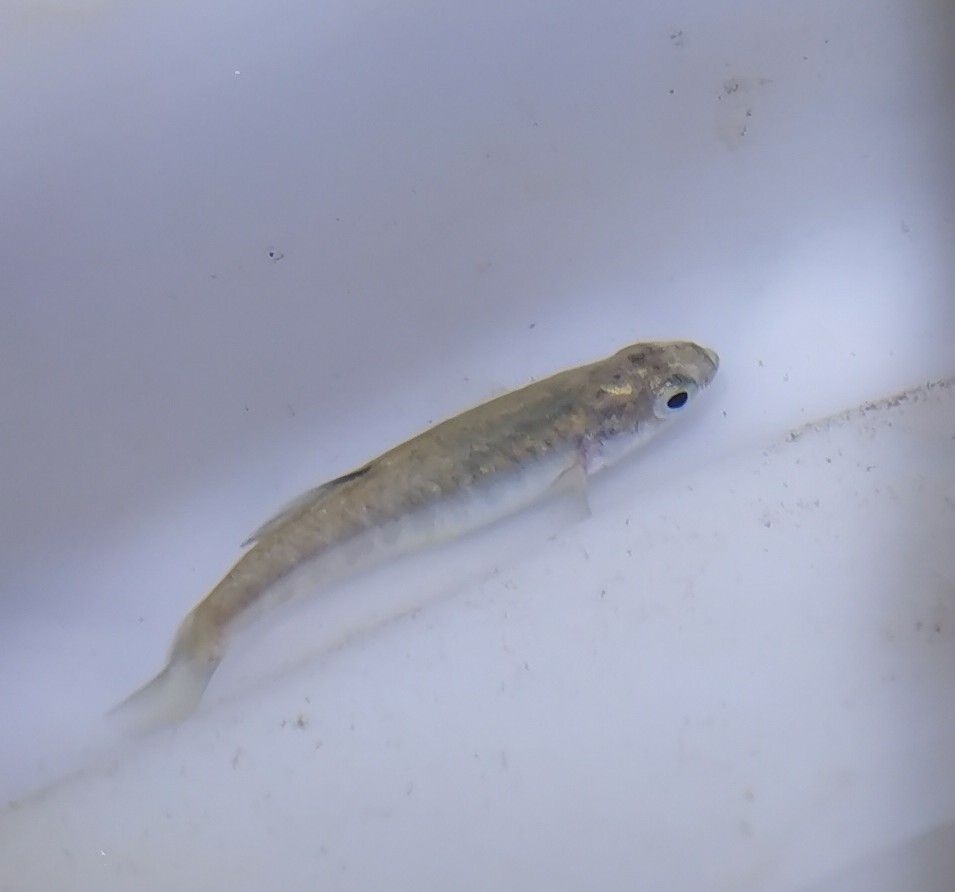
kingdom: Animalia
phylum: Chordata
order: Cyprinodontiformes
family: Cyprinodontidae
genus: Aphanius
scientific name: Aphanius almiriensis
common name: Almiri killifish
